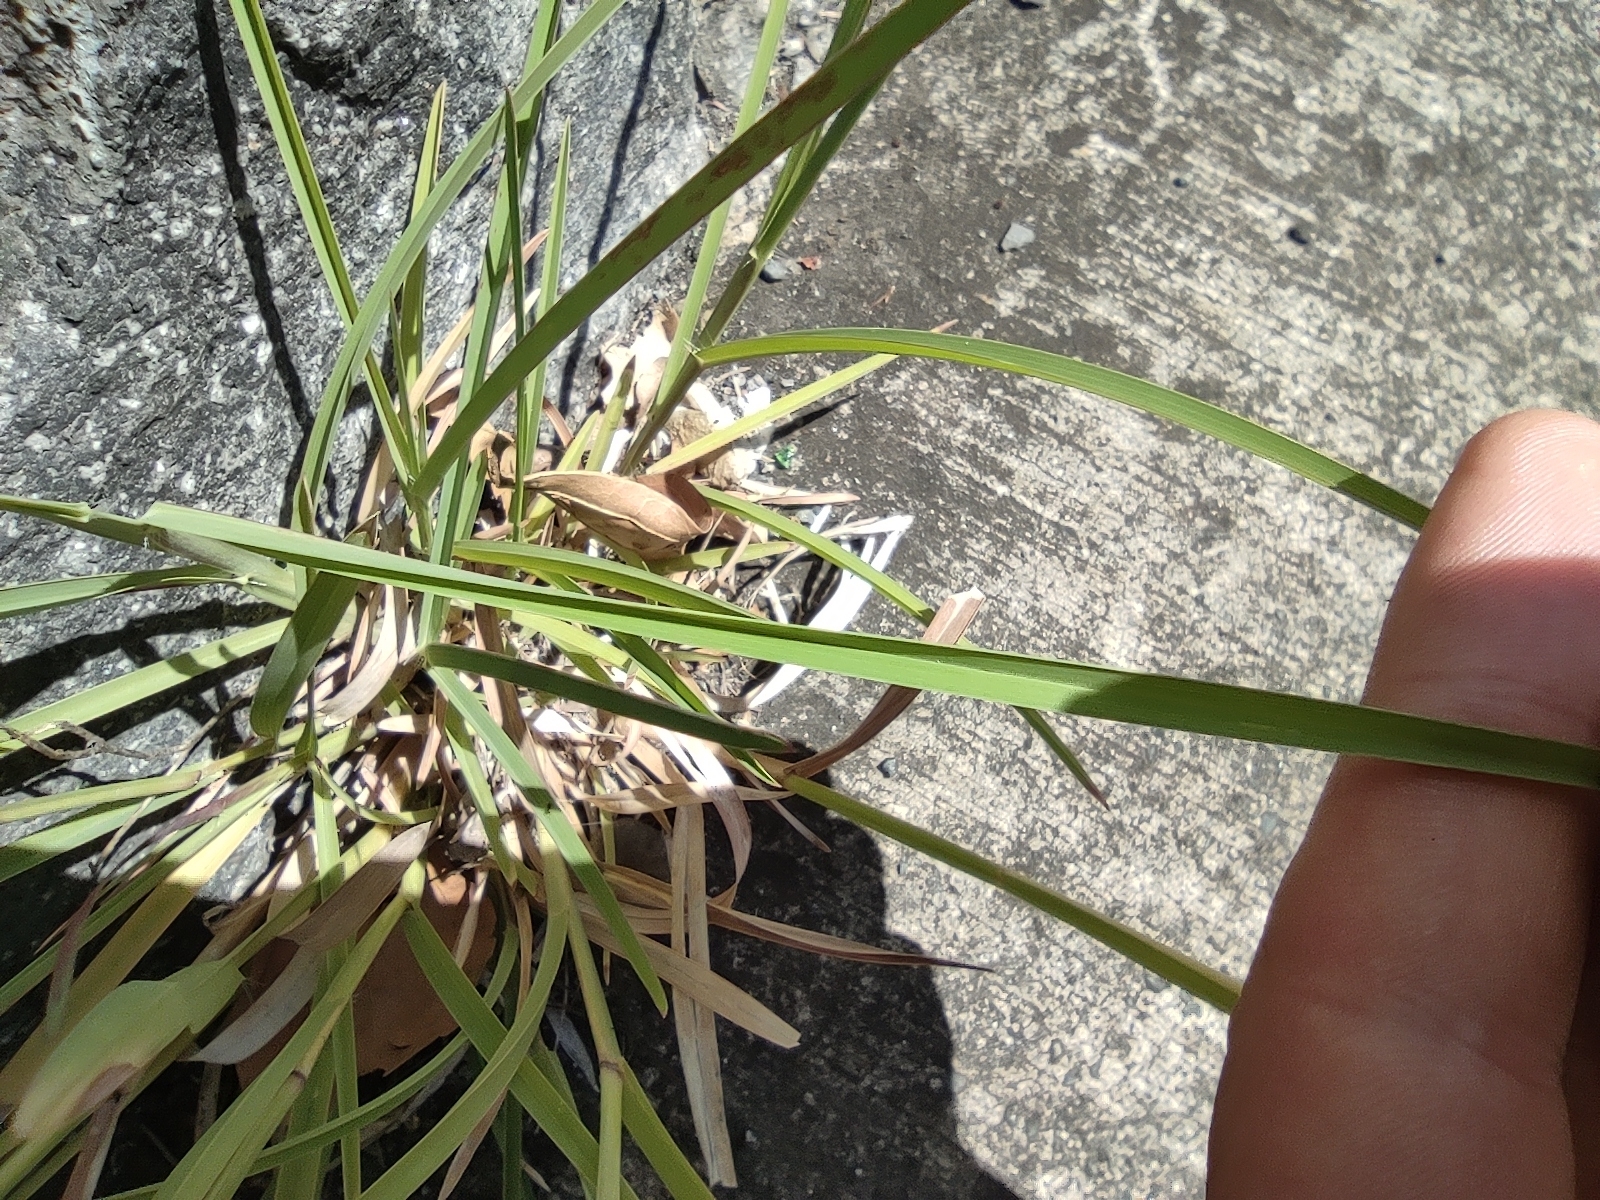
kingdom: Plantae
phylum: Tracheophyta
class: Liliopsida
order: Poales
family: Poaceae
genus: Heteropogon
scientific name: Heteropogon contortus
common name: Tanglehead
